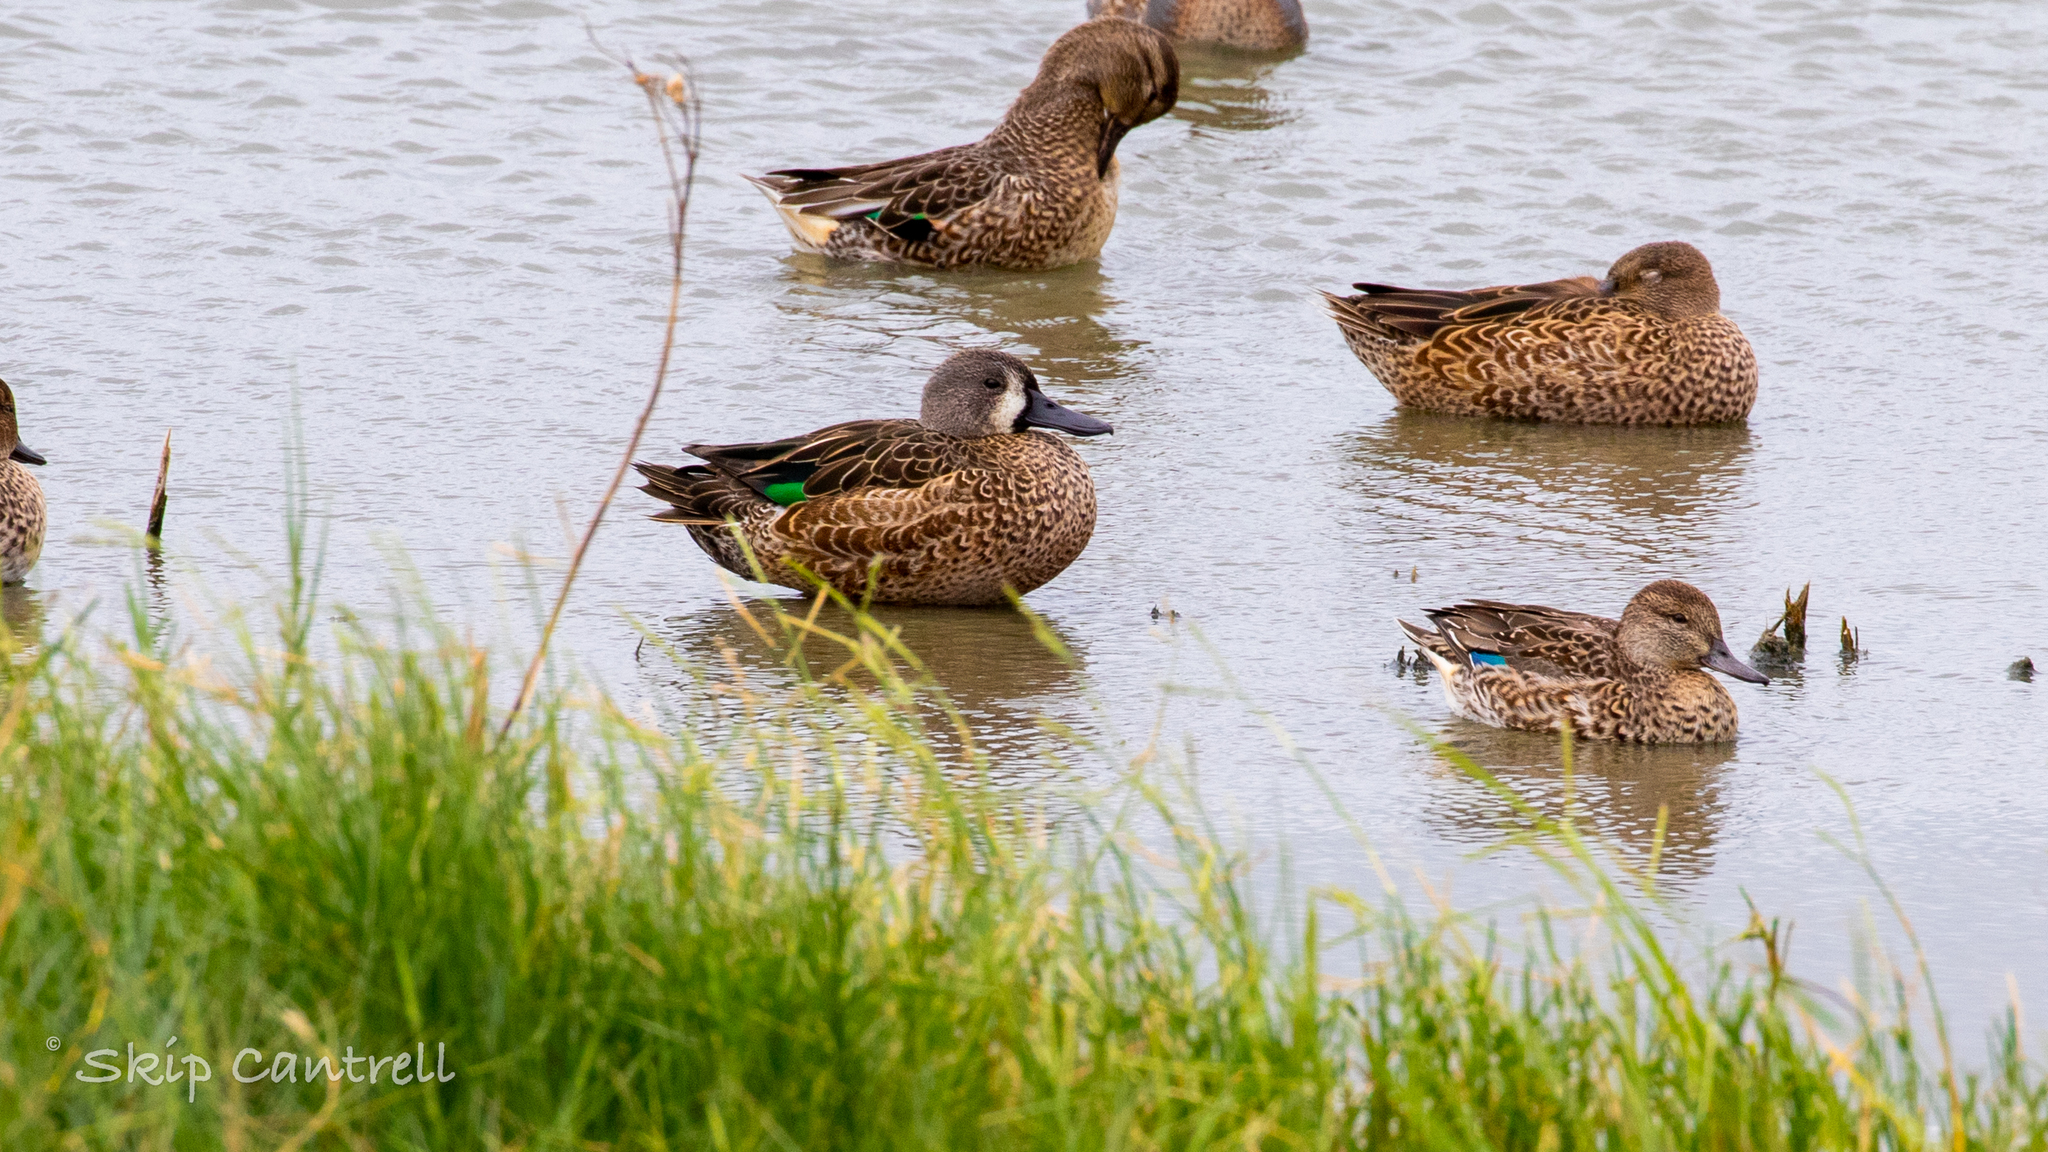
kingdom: Animalia
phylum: Chordata
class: Aves
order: Anseriformes
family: Anatidae
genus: Spatula
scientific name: Spatula discors
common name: Blue-winged teal
